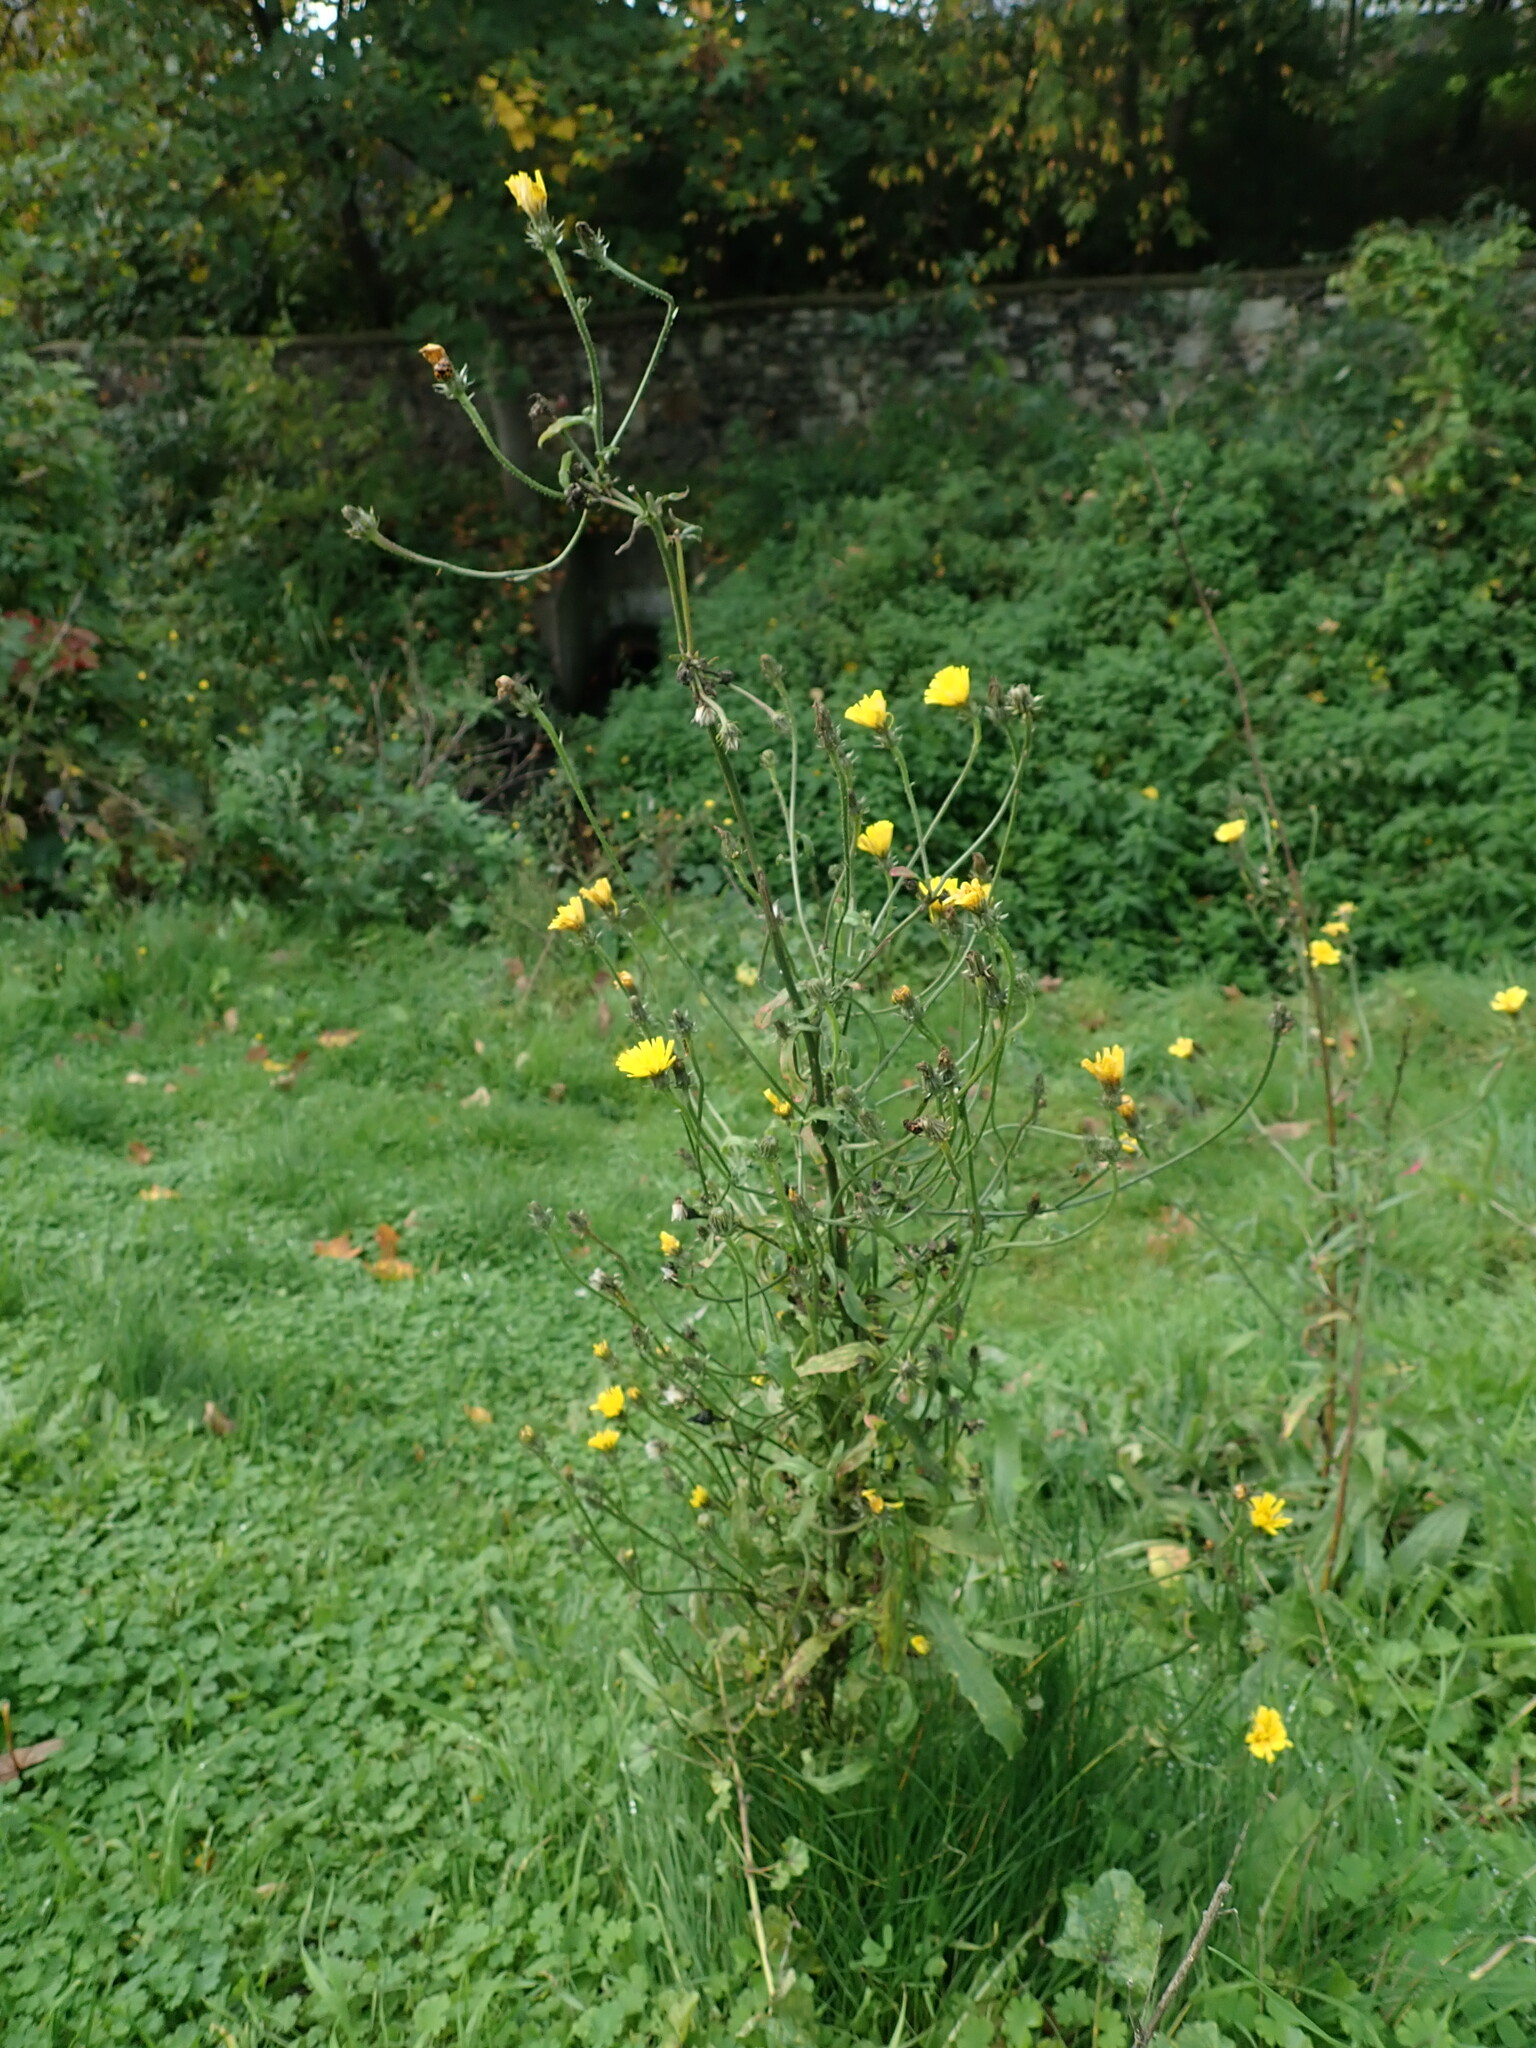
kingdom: Plantae
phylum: Tracheophyta
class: Magnoliopsida
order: Asterales
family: Asteraceae
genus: Picris
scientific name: Picris hieracioides
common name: Hawkweed oxtongue
